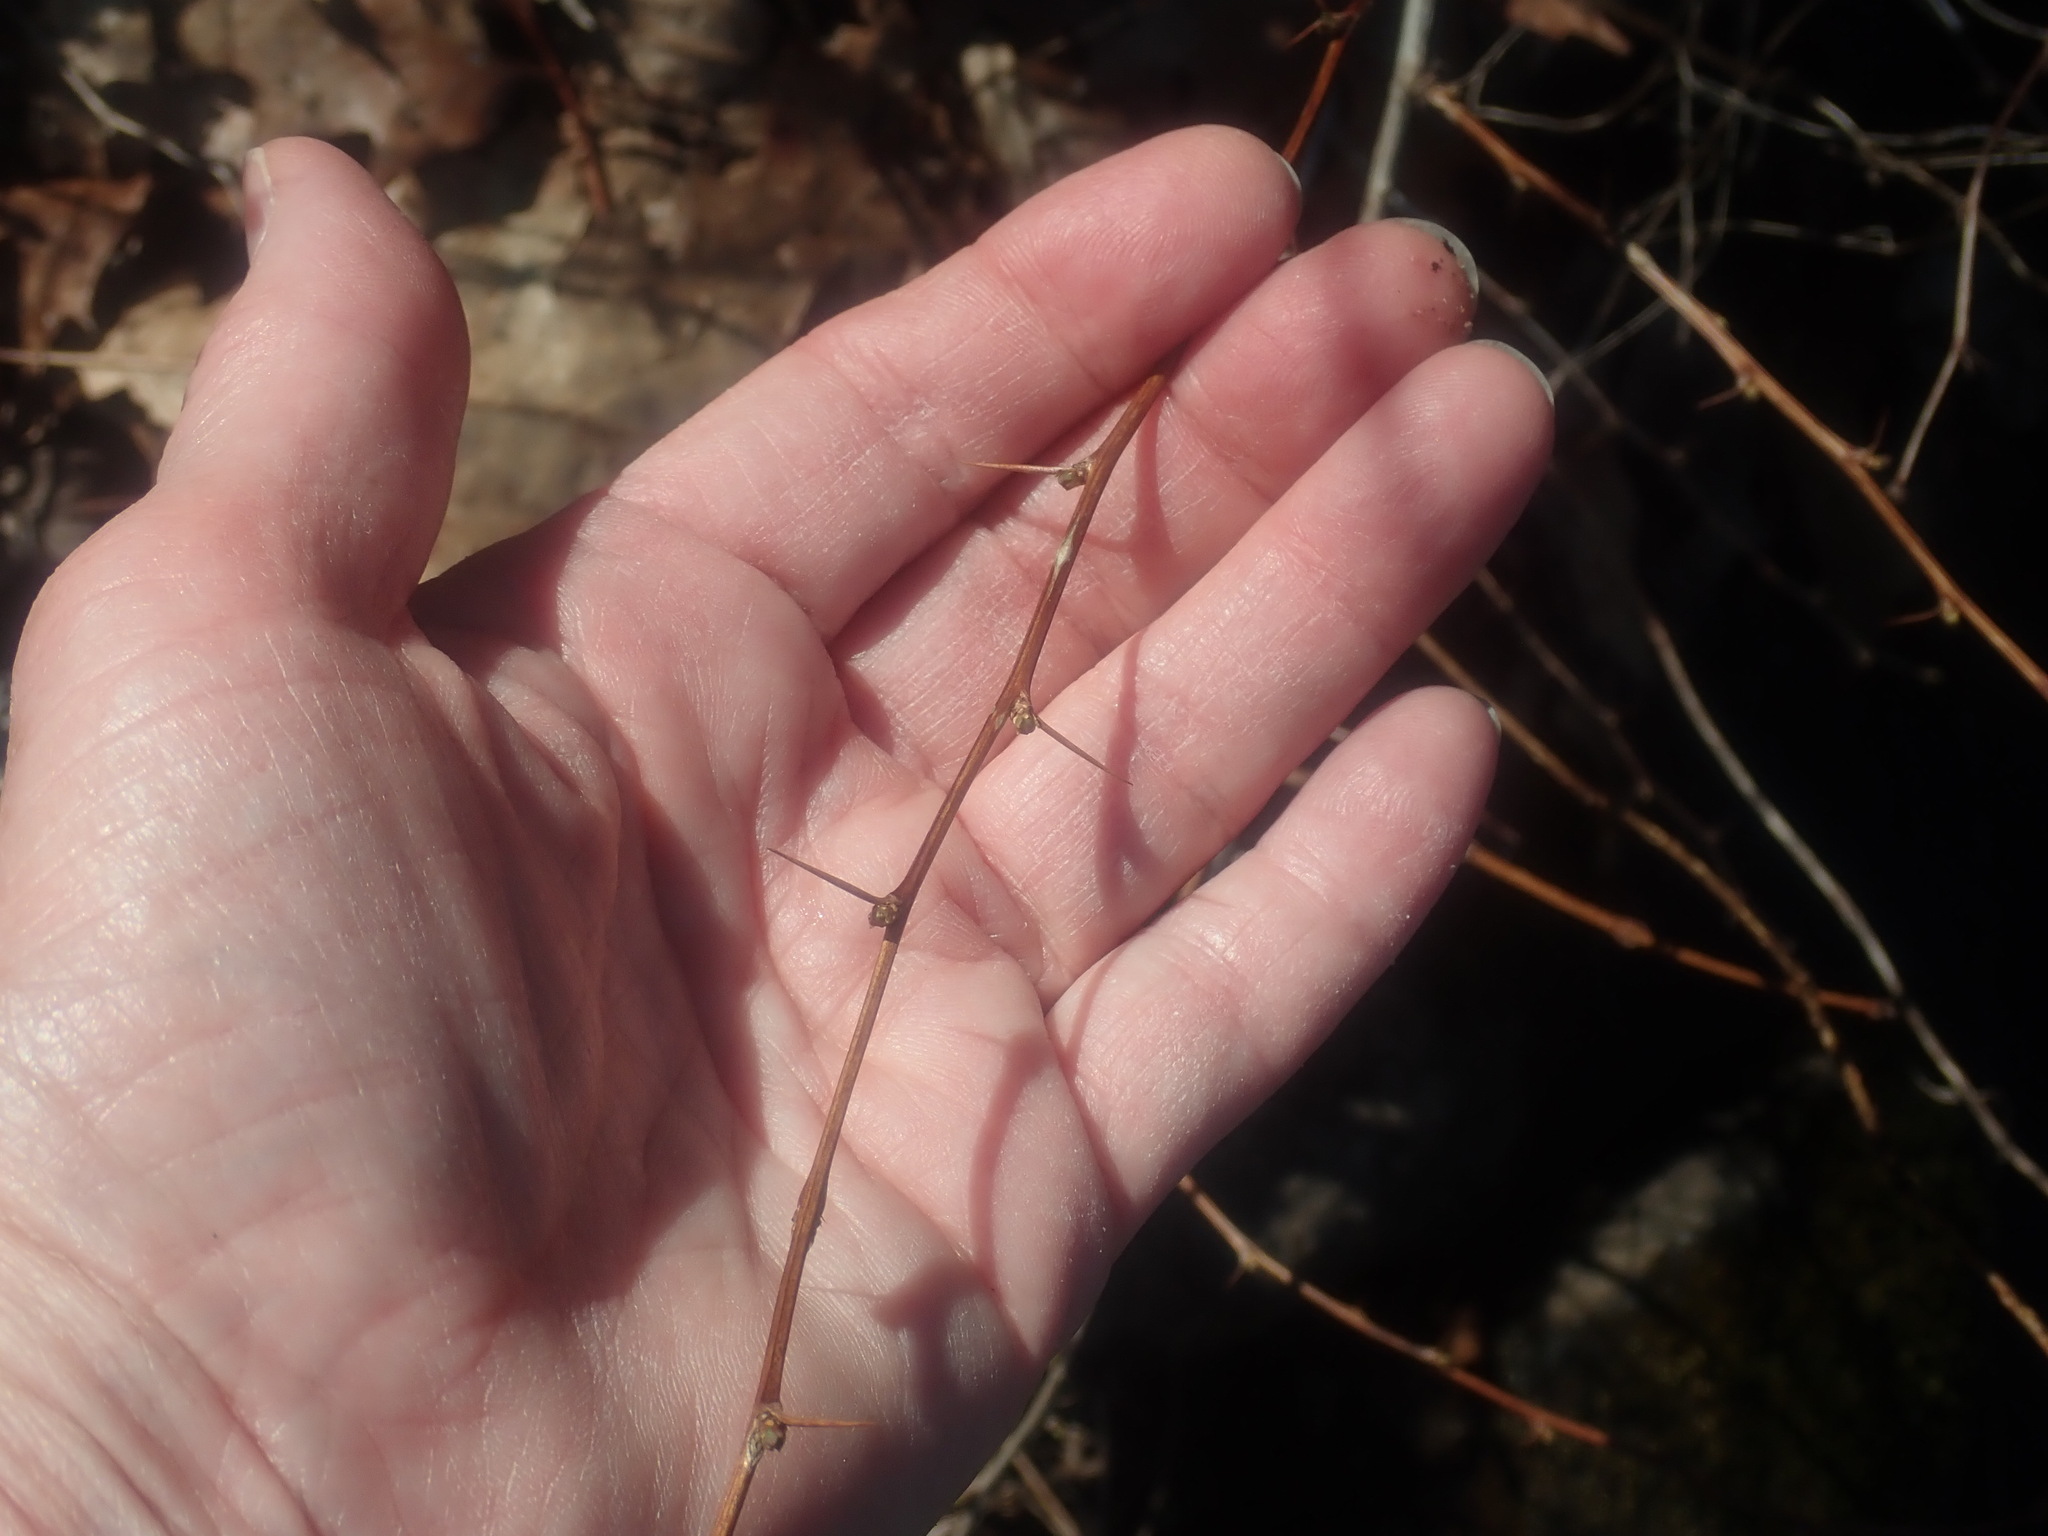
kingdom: Plantae
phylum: Tracheophyta
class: Magnoliopsida
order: Ranunculales
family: Berberidaceae
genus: Berberis
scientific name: Berberis thunbergii
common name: Japanese barberry
